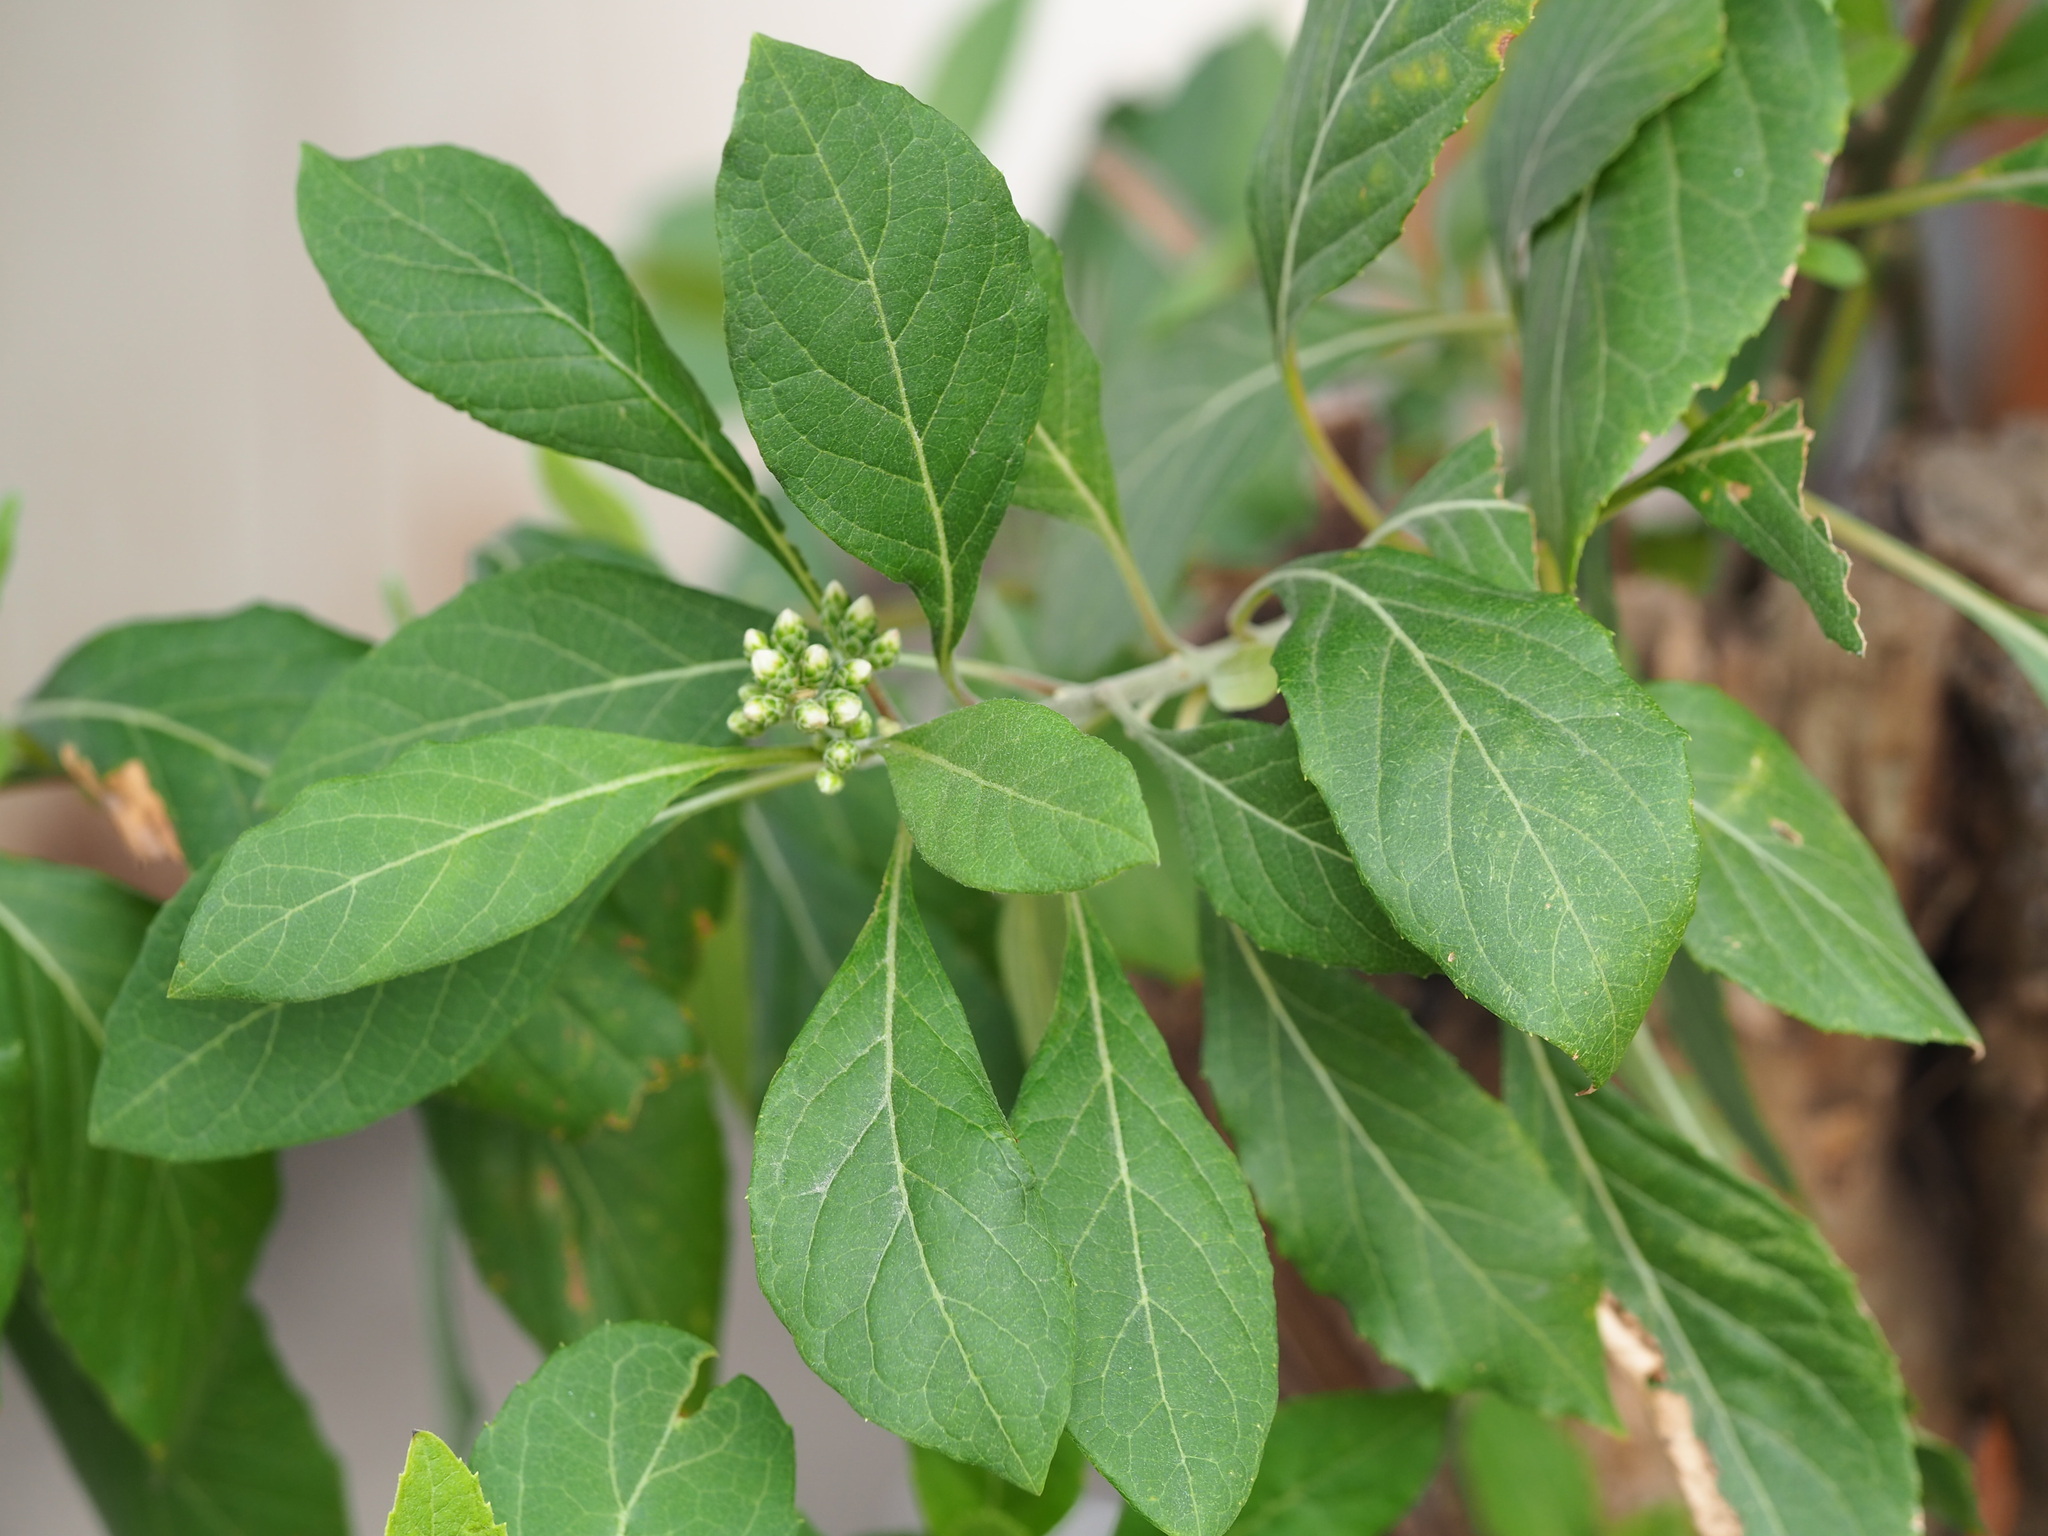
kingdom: Plantae
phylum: Tracheophyta
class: Magnoliopsida
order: Asterales
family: Asteraceae
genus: Gymnanthemum
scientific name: Gymnanthemum amygdalinum
